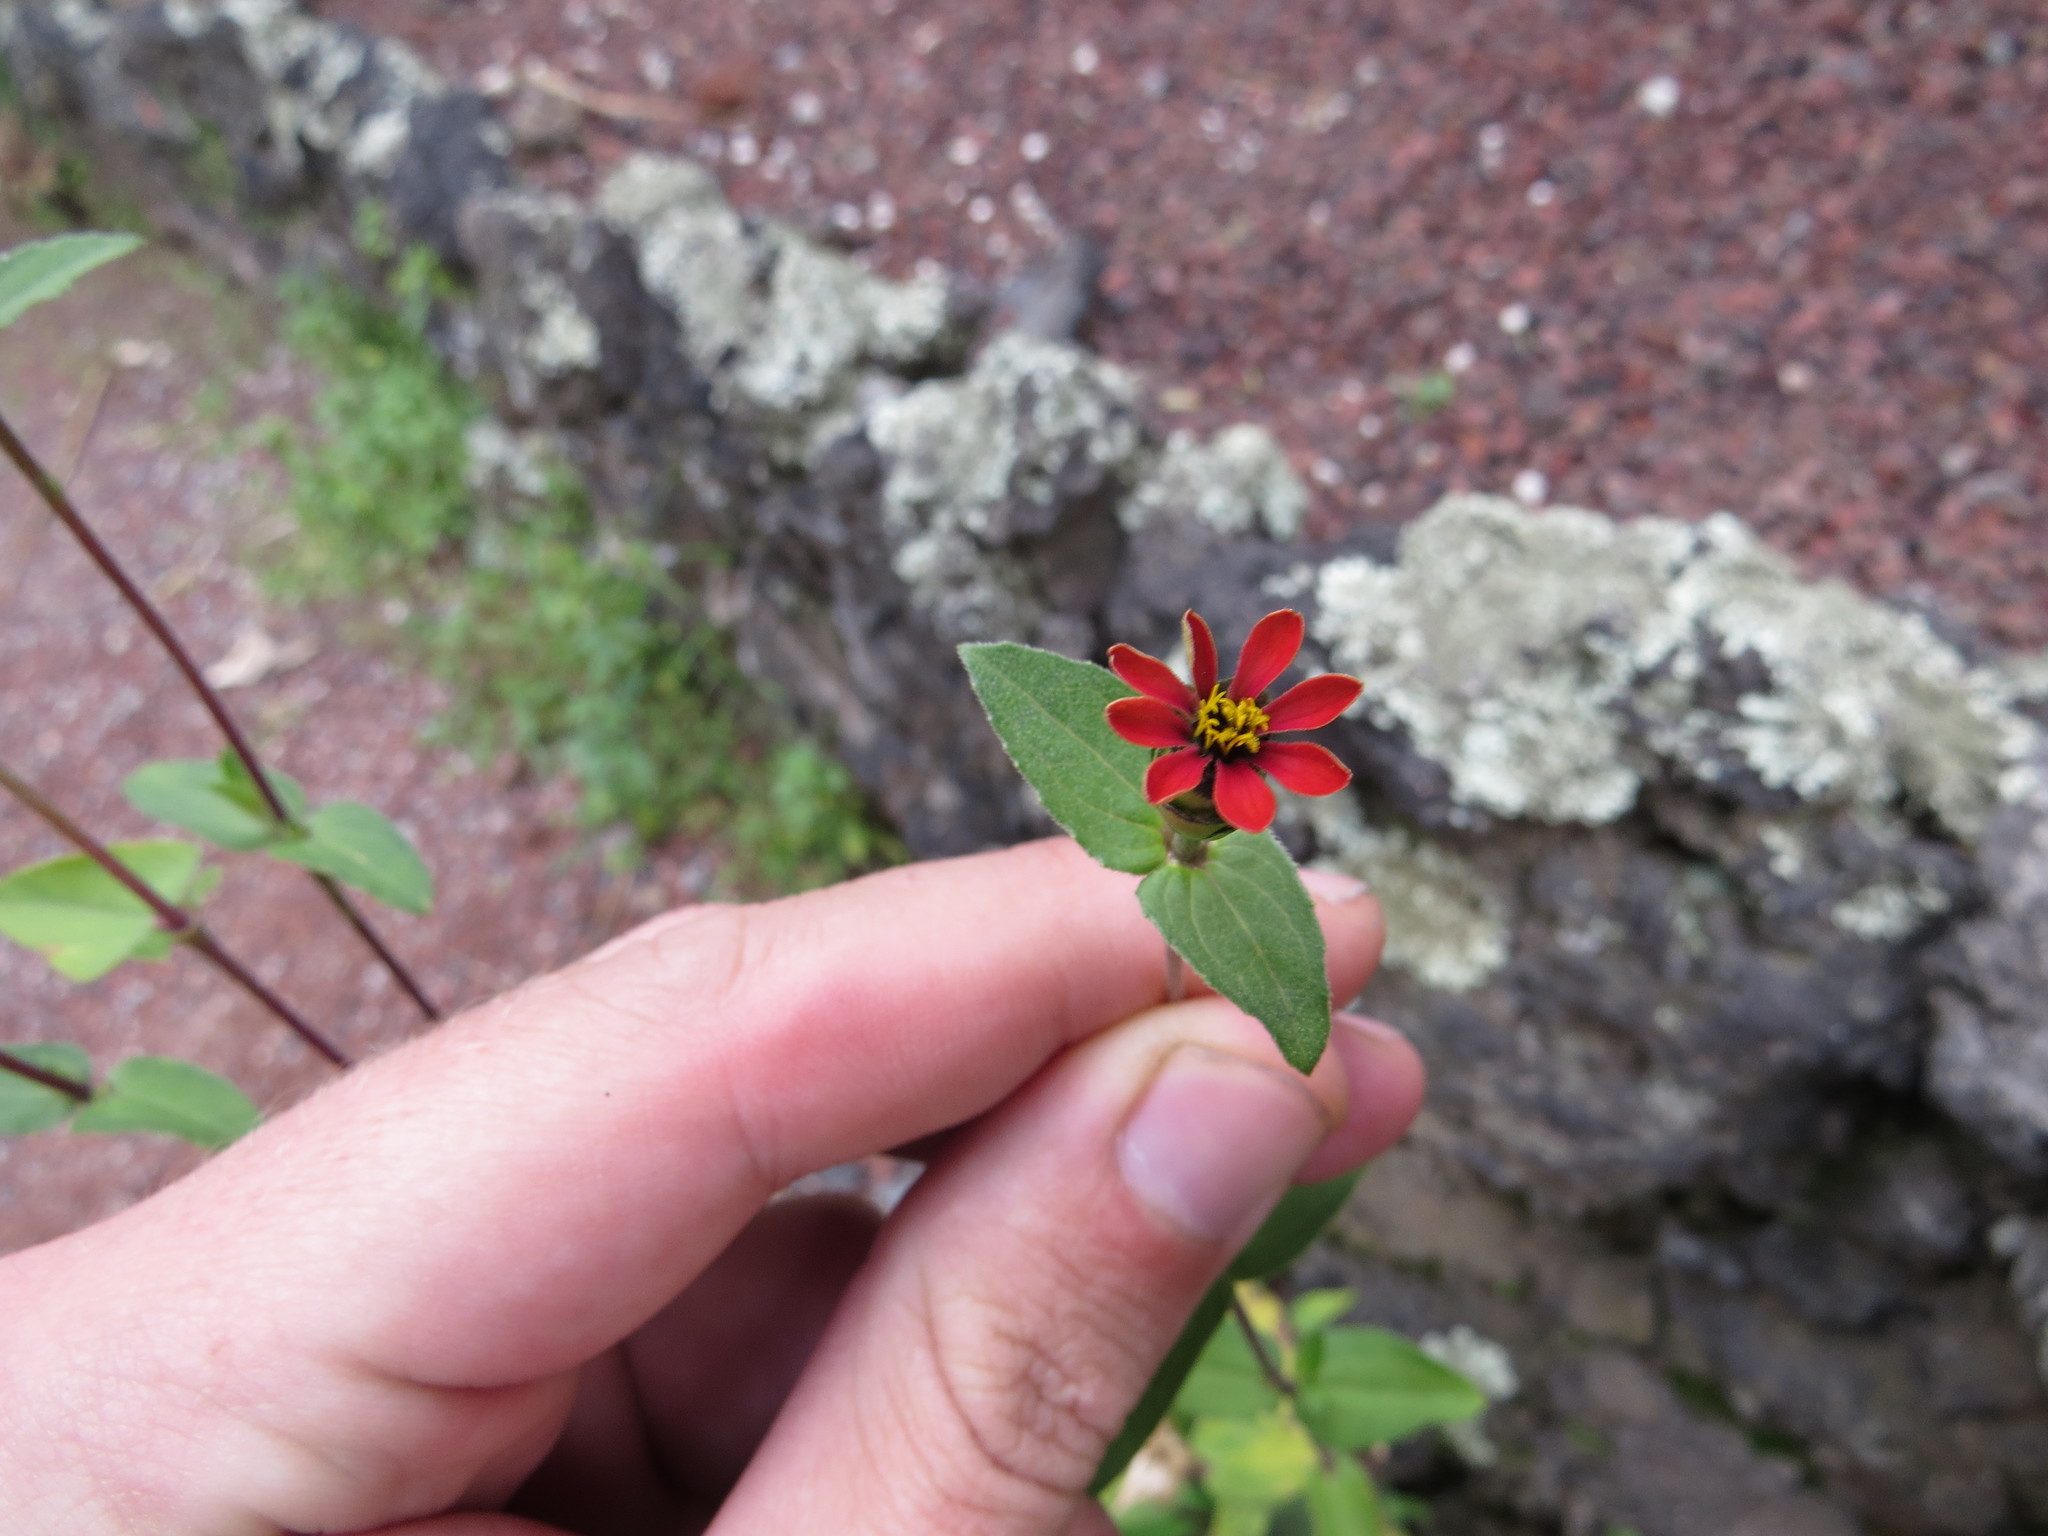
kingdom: Plantae
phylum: Tracheophyta
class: Magnoliopsida
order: Asterales
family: Asteraceae
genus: Zinnia
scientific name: Zinnia peruviana
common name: Peruvian zinnia
